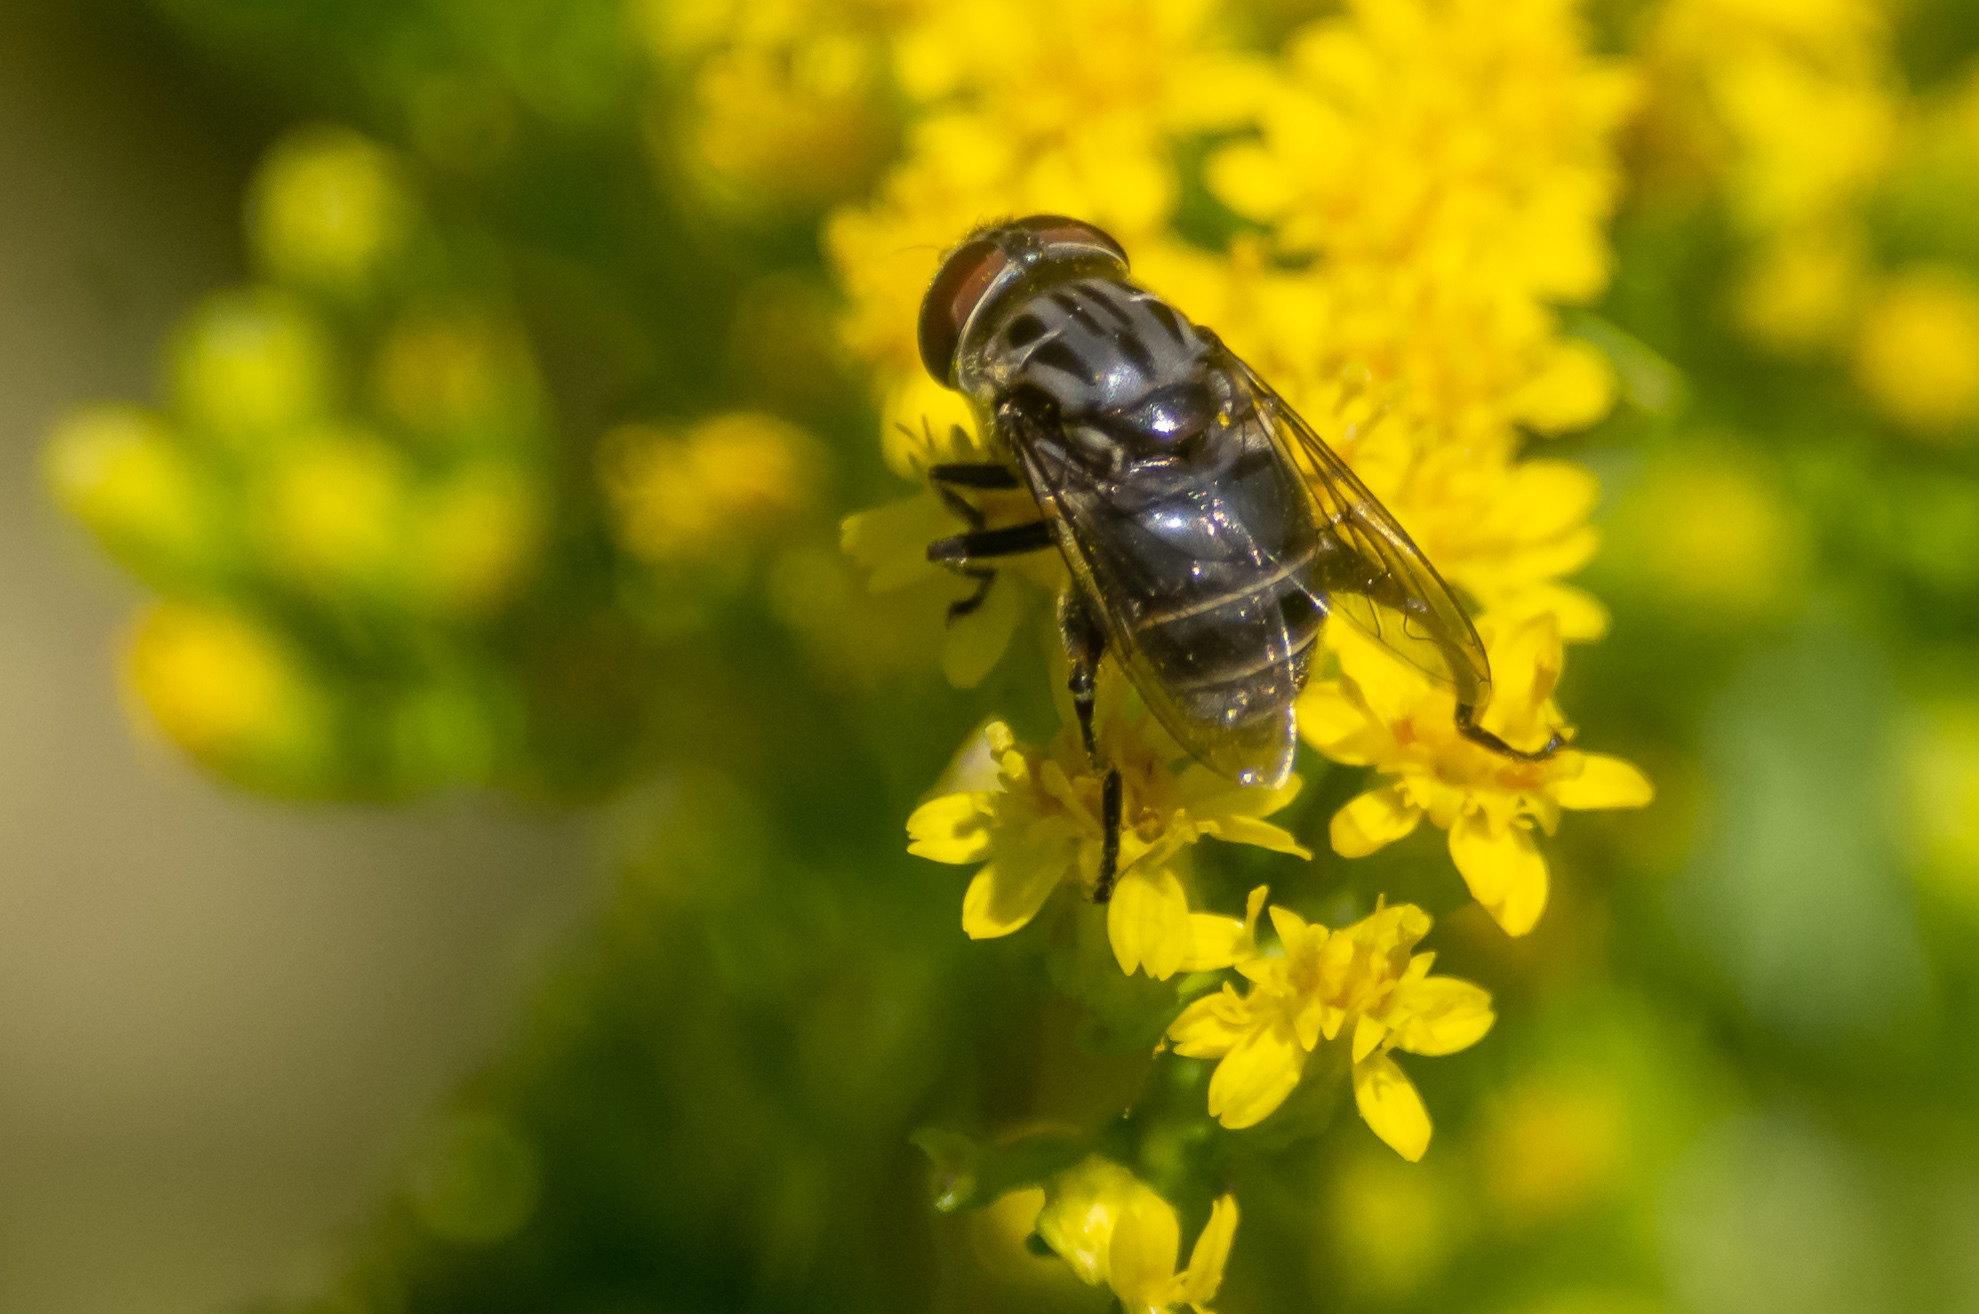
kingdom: Animalia
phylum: Arthropoda
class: Insecta
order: Diptera
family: Syrphidae
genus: Palpada
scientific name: Palpada furcata
